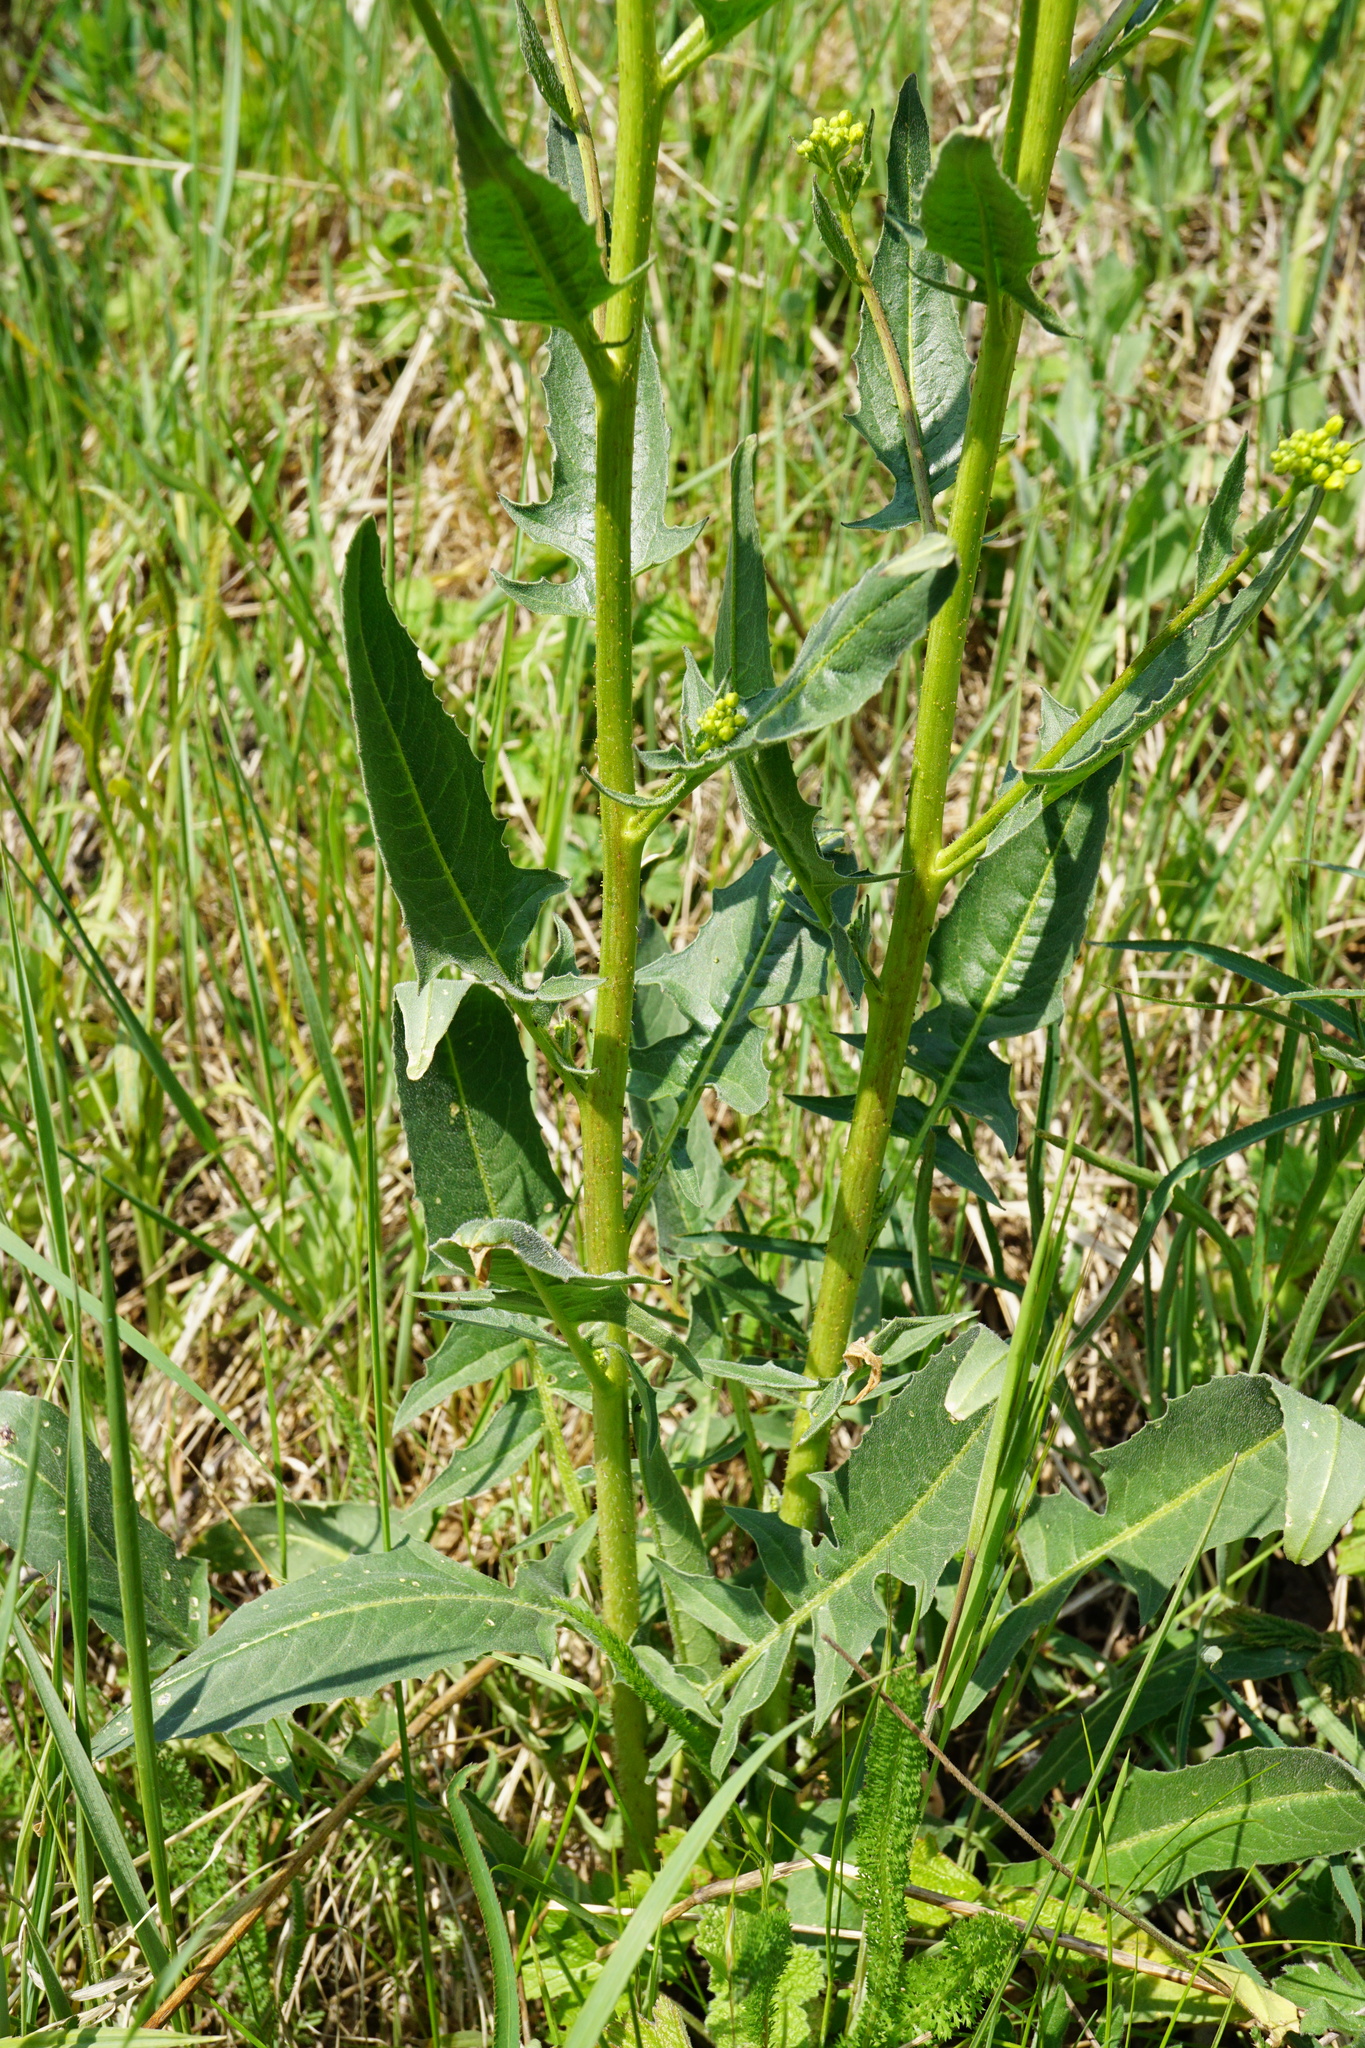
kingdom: Plantae
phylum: Tracheophyta
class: Magnoliopsida
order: Brassicales
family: Brassicaceae
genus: Bunias
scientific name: Bunias orientalis
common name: Warty-cabbage
